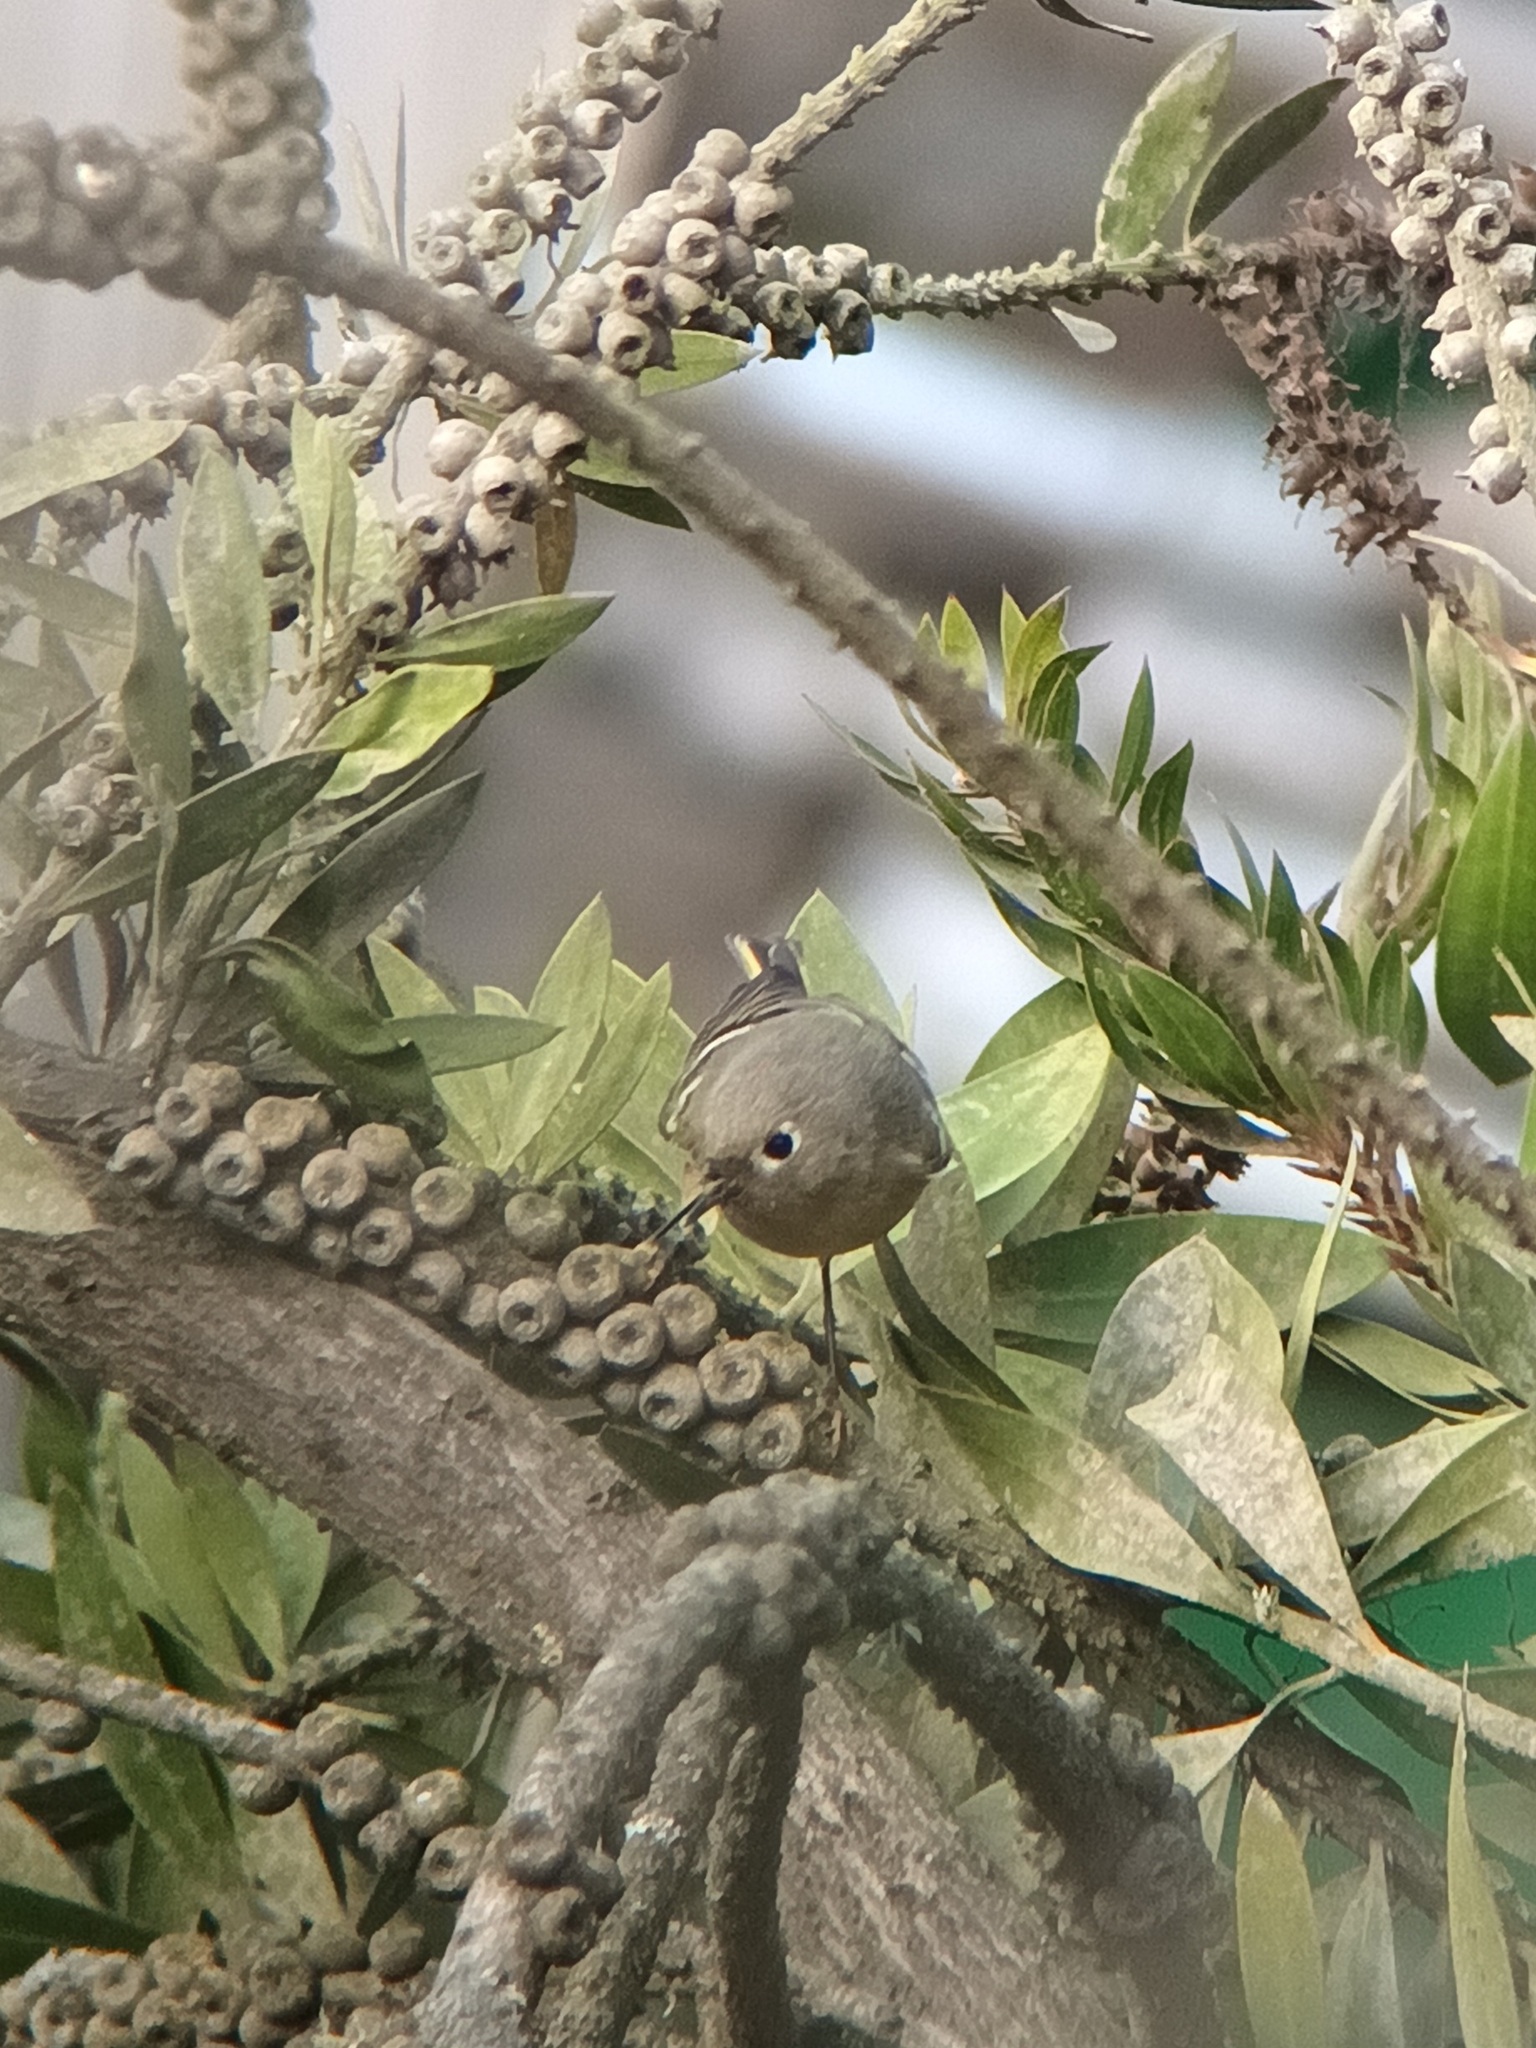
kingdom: Animalia
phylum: Chordata
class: Aves
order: Passeriformes
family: Regulidae
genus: Regulus
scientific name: Regulus calendula
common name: Ruby-crowned kinglet
